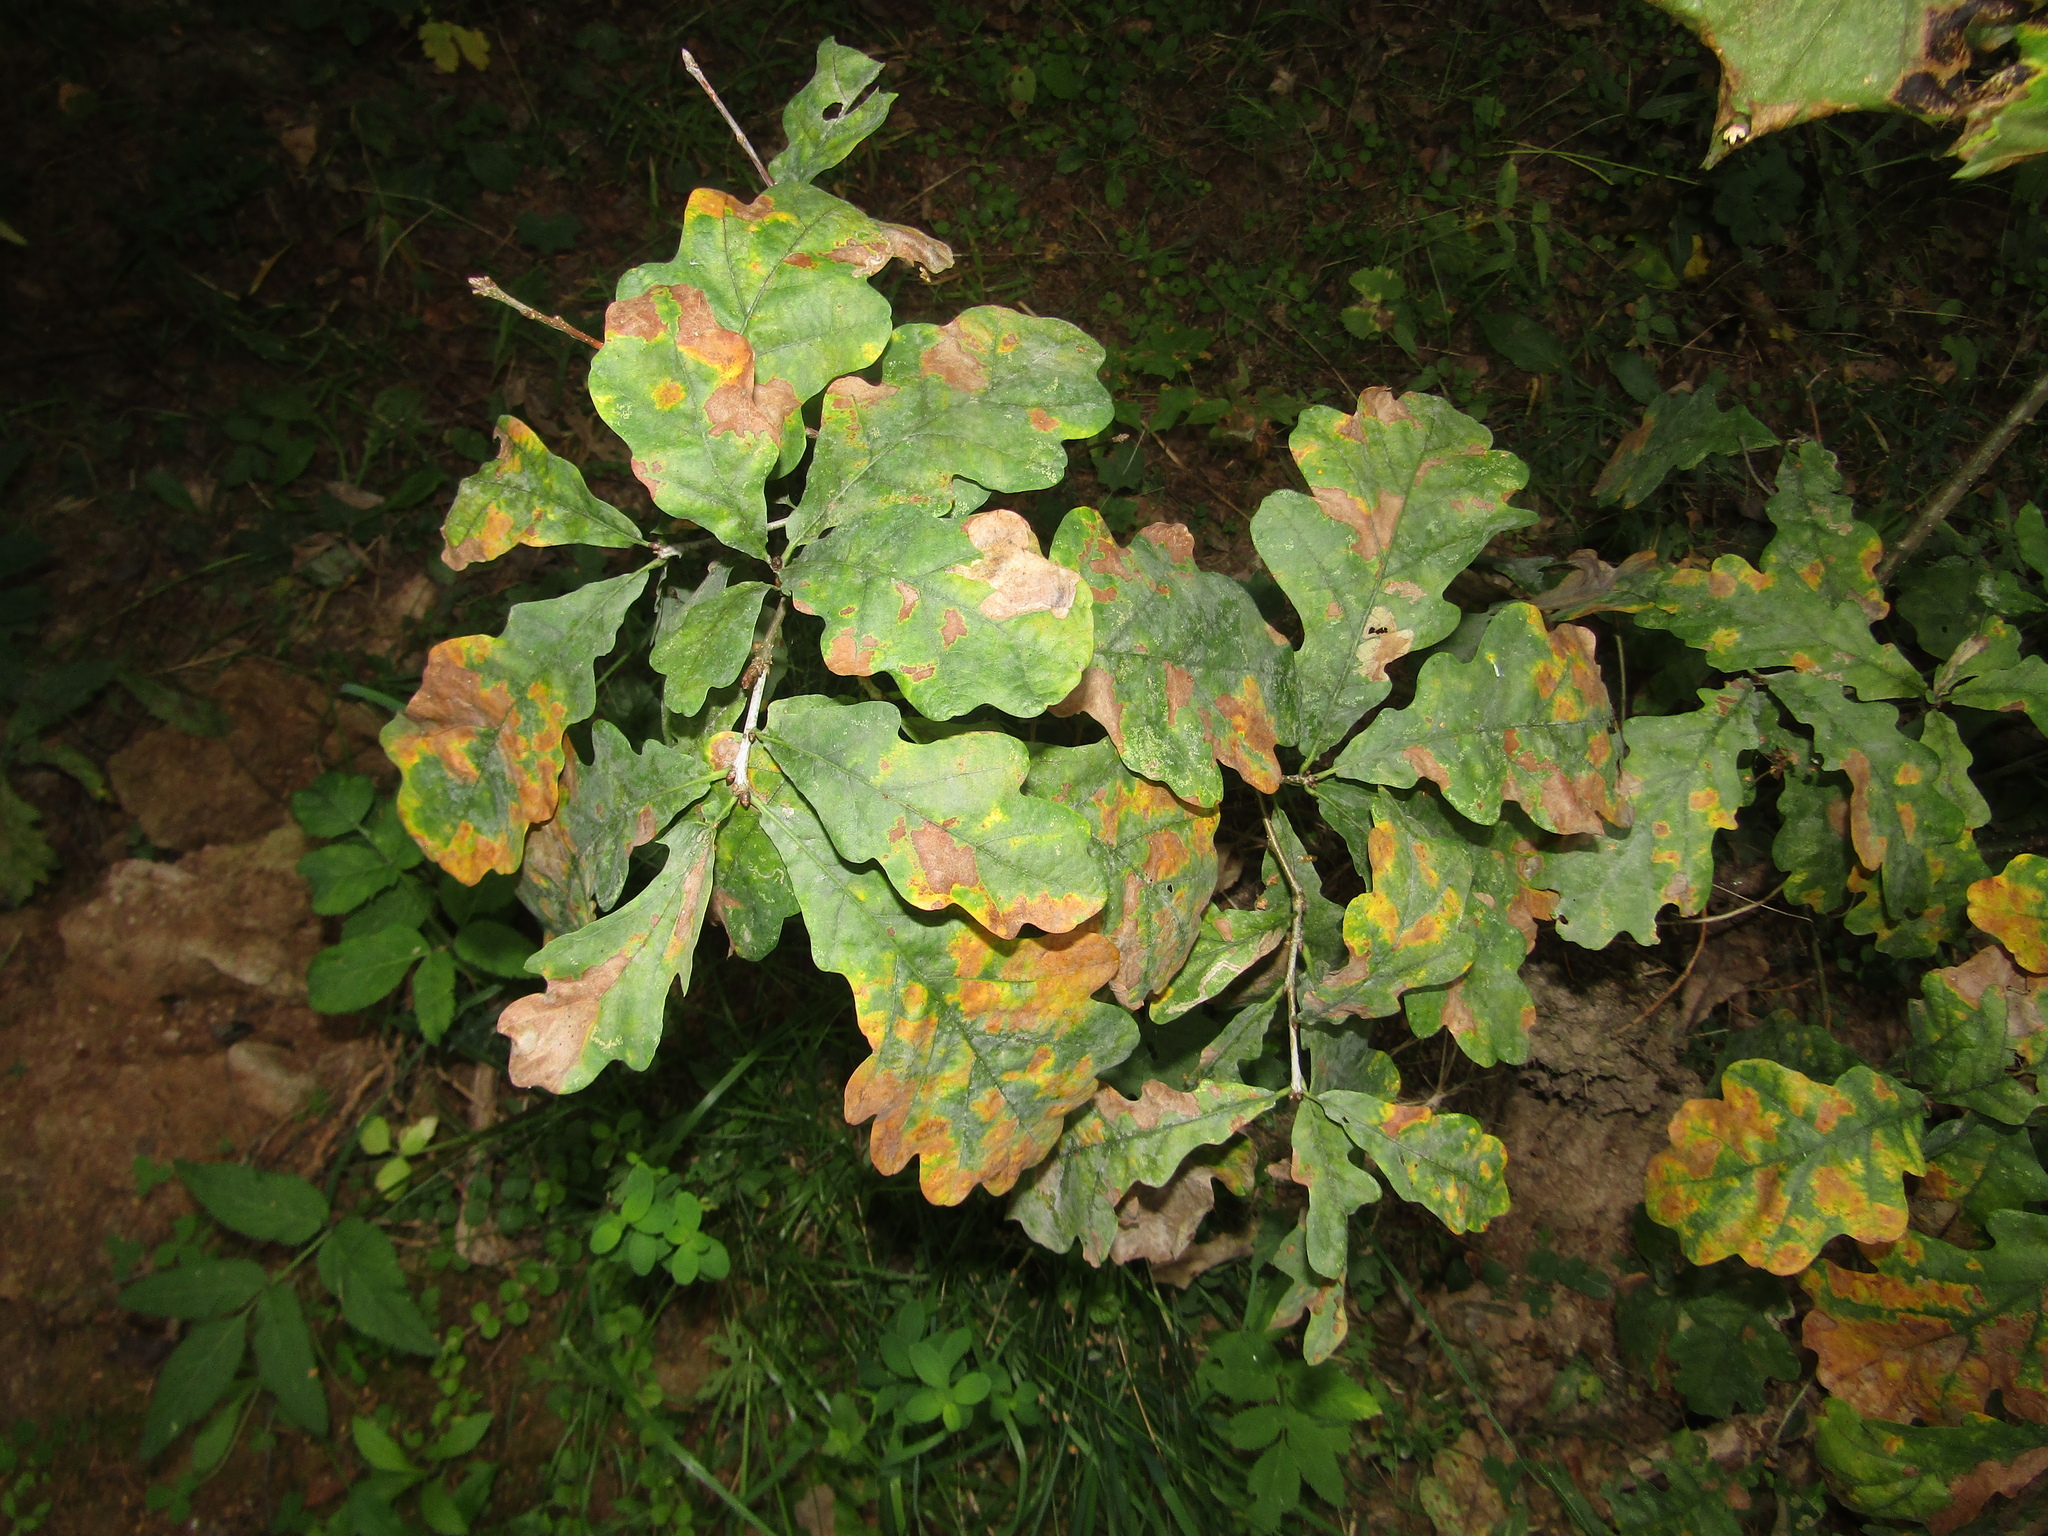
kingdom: Plantae
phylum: Tracheophyta
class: Magnoliopsida
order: Fagales
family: Fagaceae
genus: Quercus
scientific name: Quercus robur
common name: Pedunculate oak
